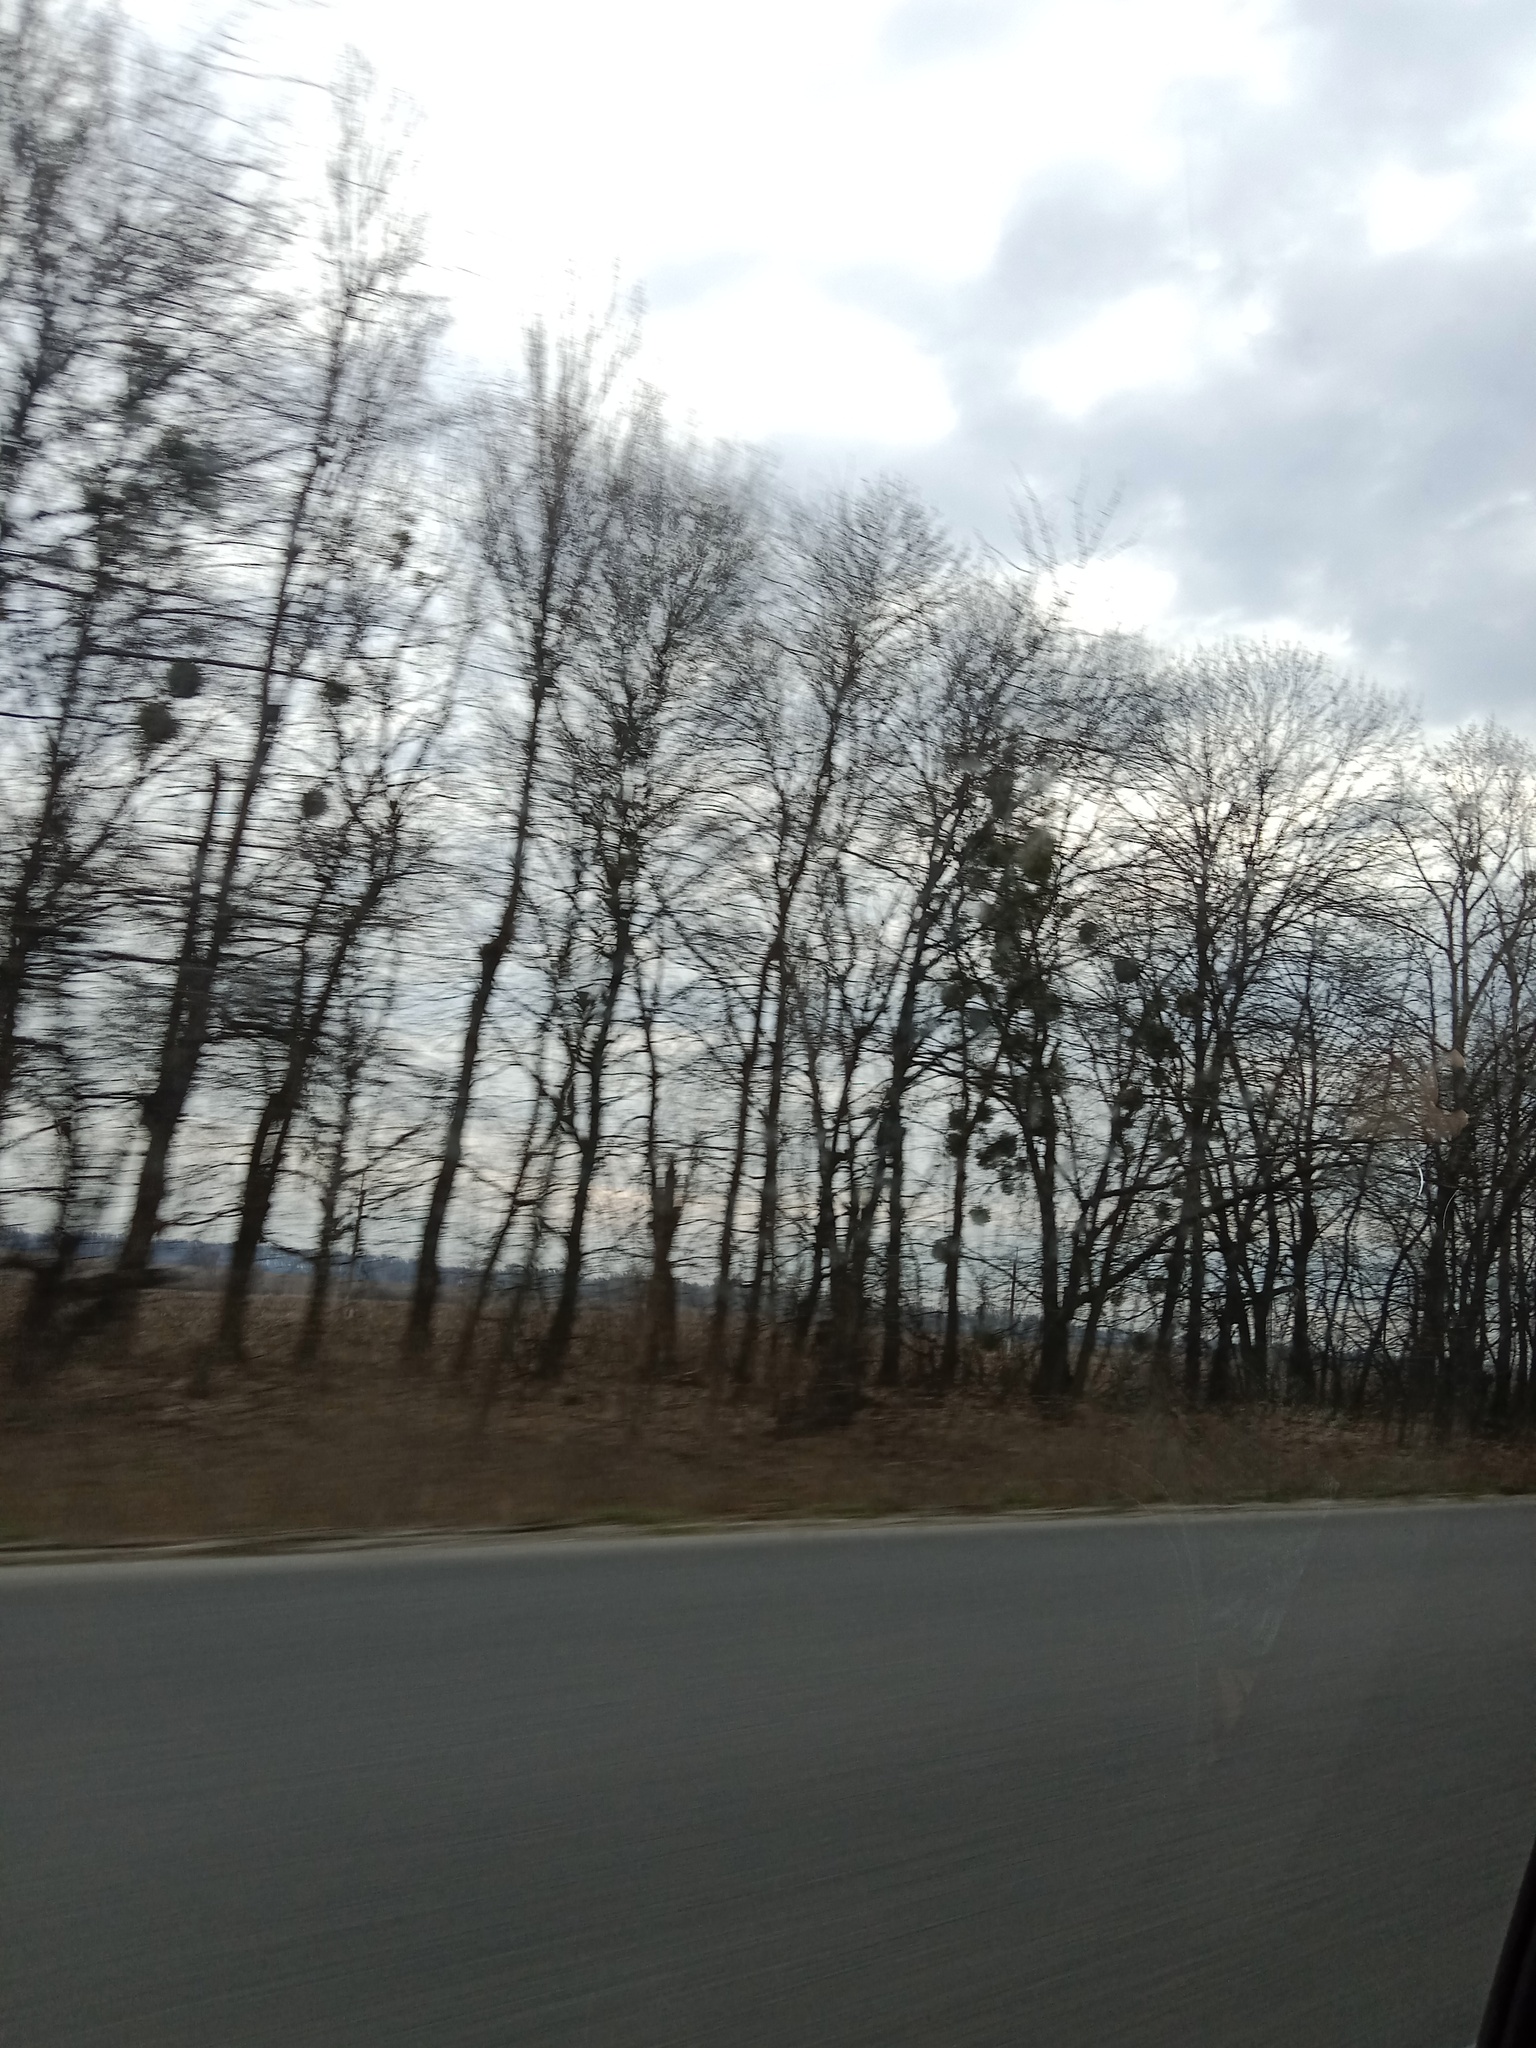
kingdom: Plantae
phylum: Tracheophyta
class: Magnoliopsida
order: Santalales
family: Viscaceae
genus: Viscum
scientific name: Viscum album
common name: Mistletoe
